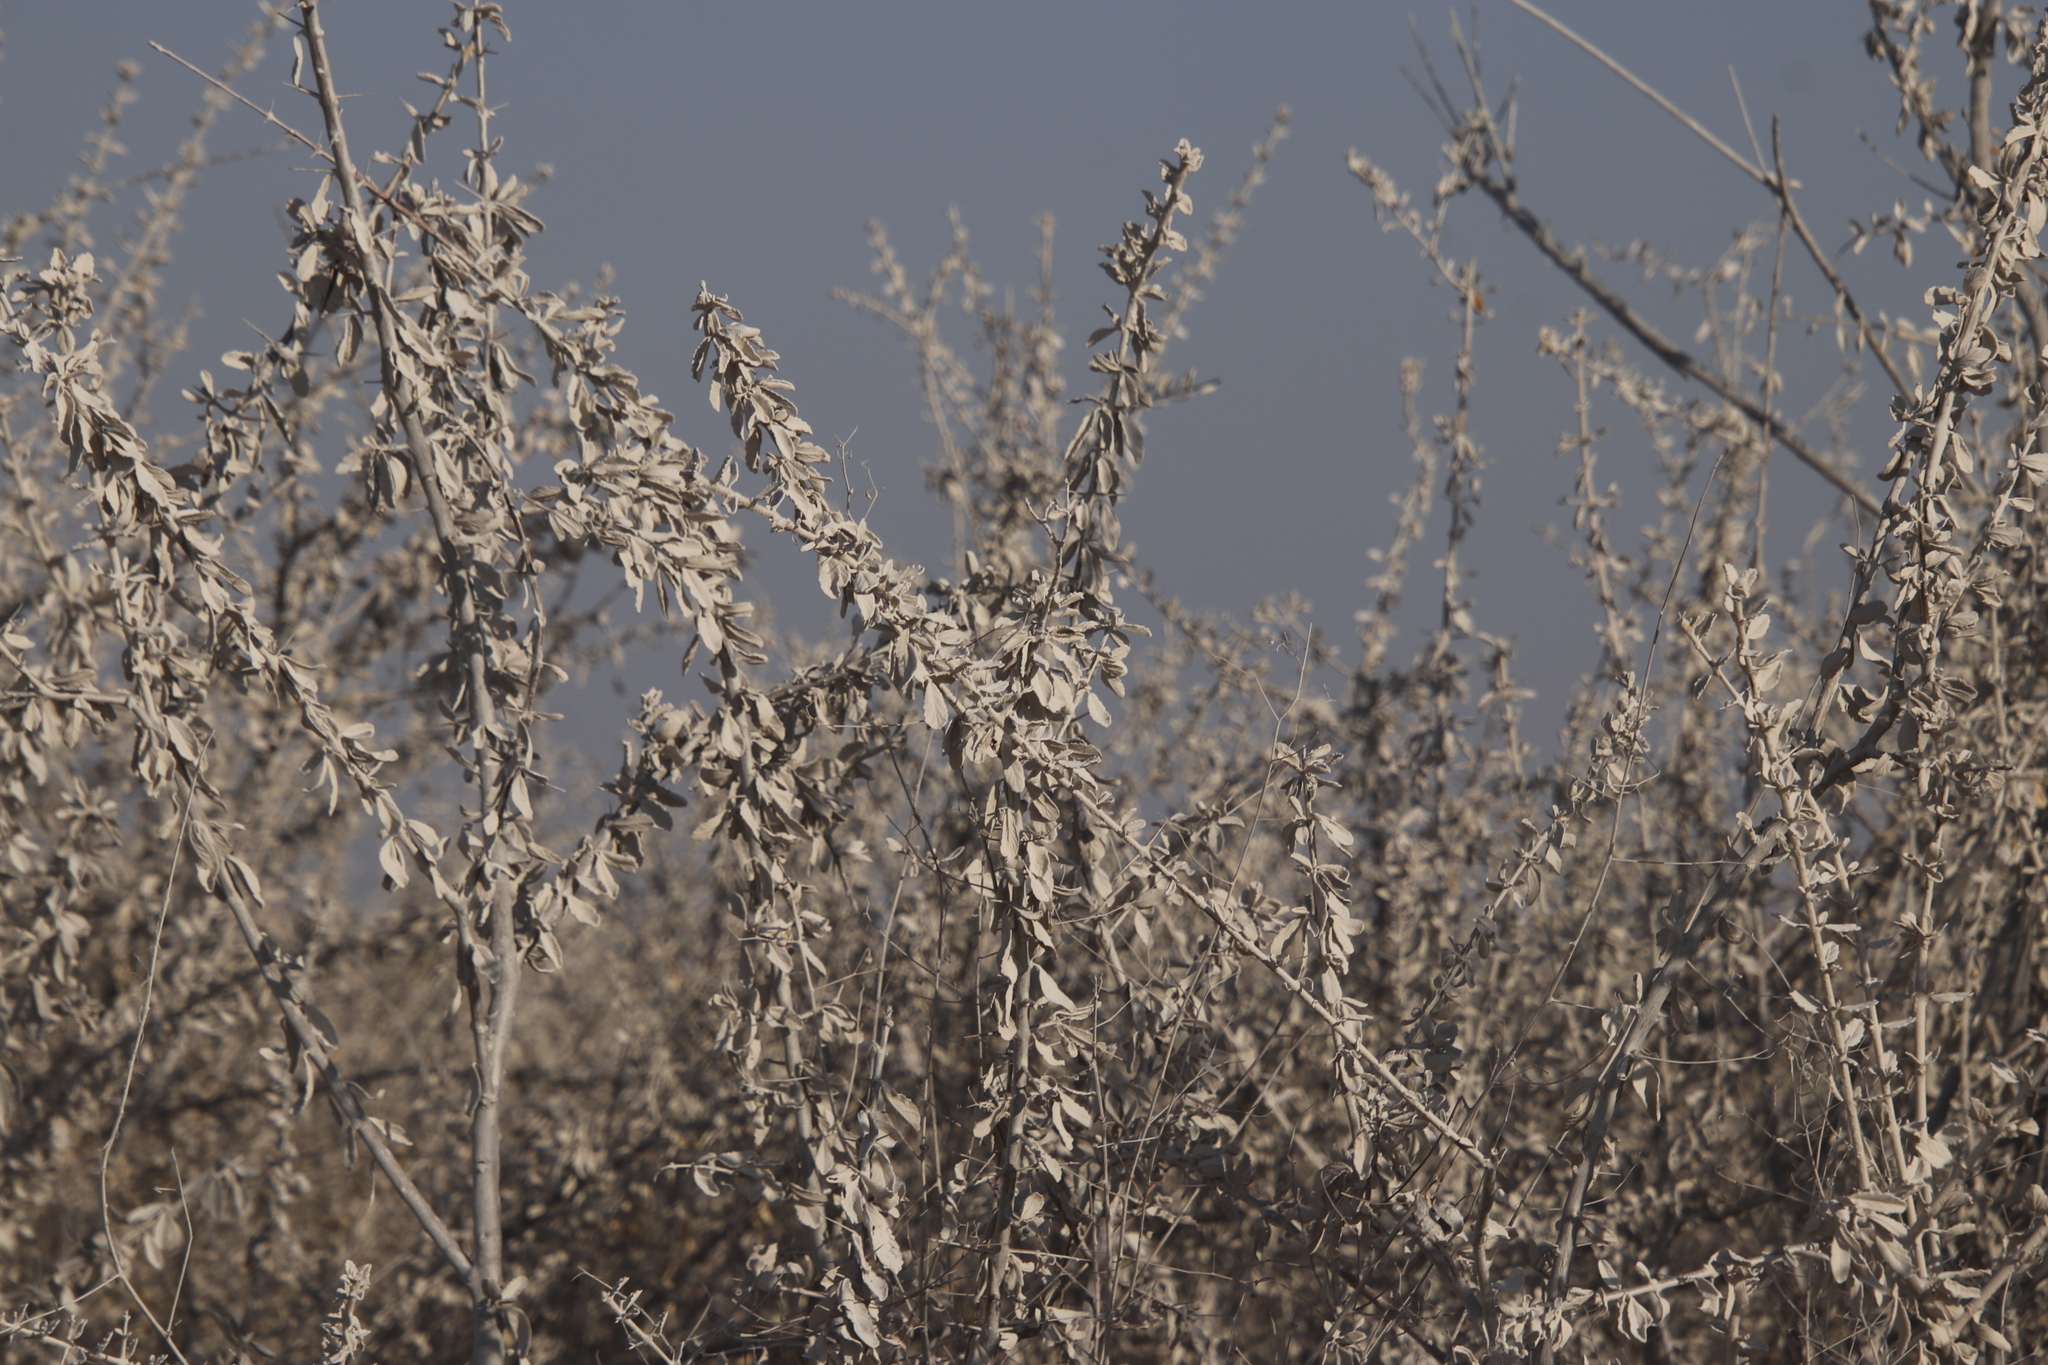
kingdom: Plantae
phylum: Tracheophyta
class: Magnoliopsida
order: Lamiales
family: Bignoniaceae
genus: Catophractes
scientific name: Catophractes alexandri
